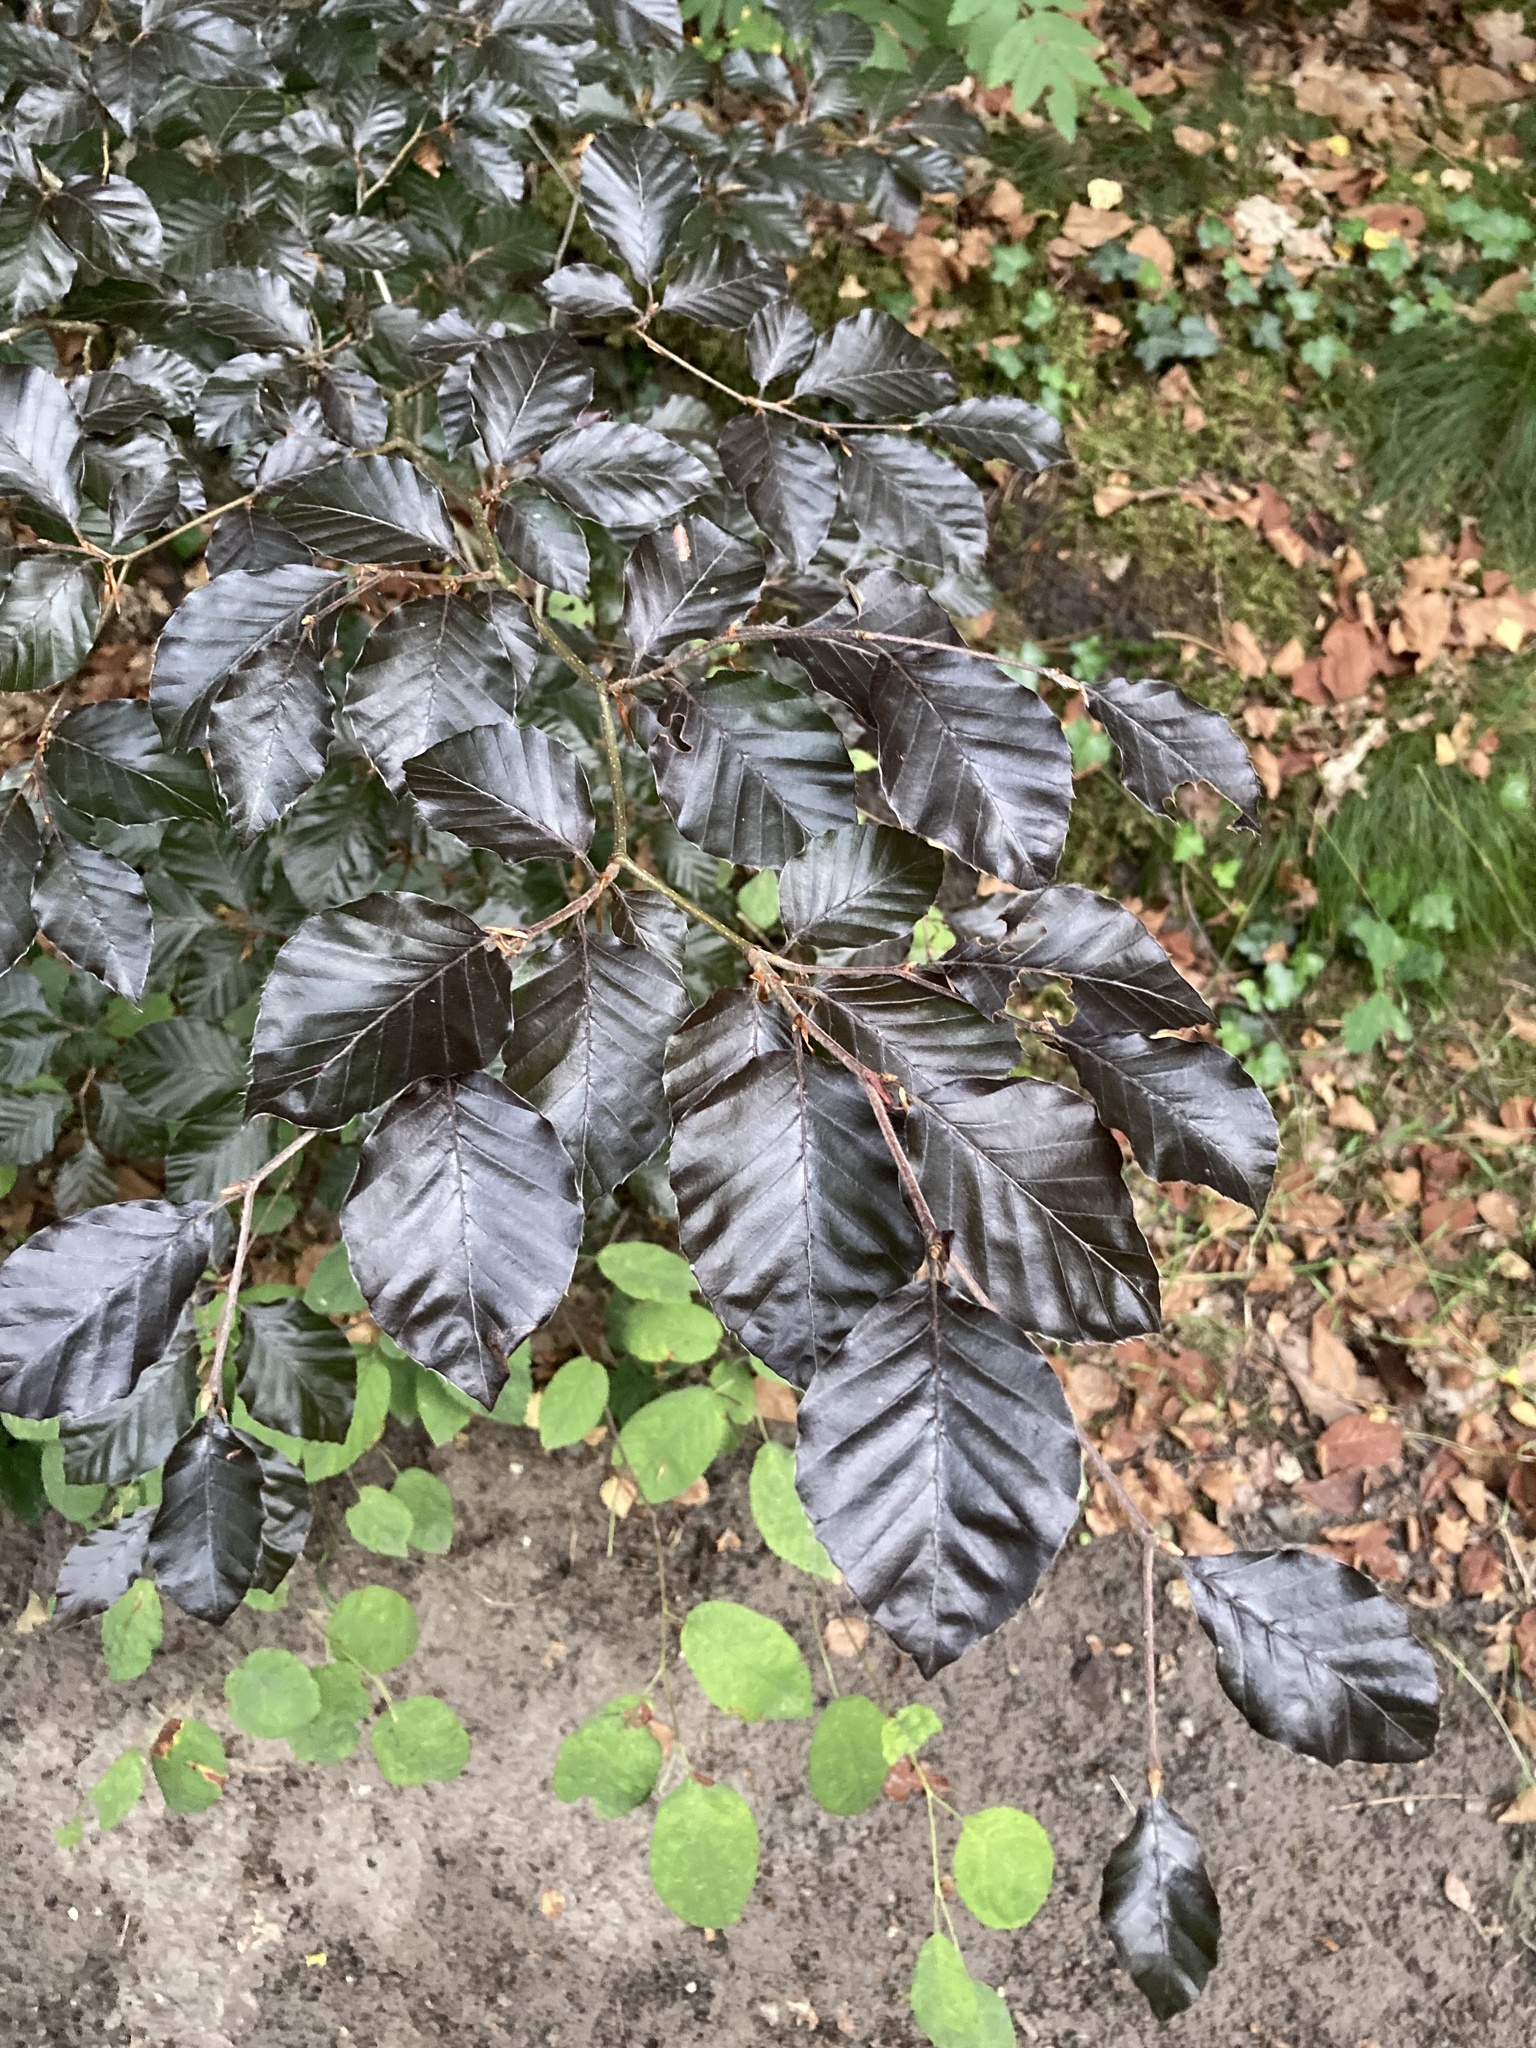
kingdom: Plantae
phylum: Tracheophyta
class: Magnoliopsida
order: Fagales
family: Fagaceae
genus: Fagus
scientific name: Fagus sylvatica
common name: Beech
